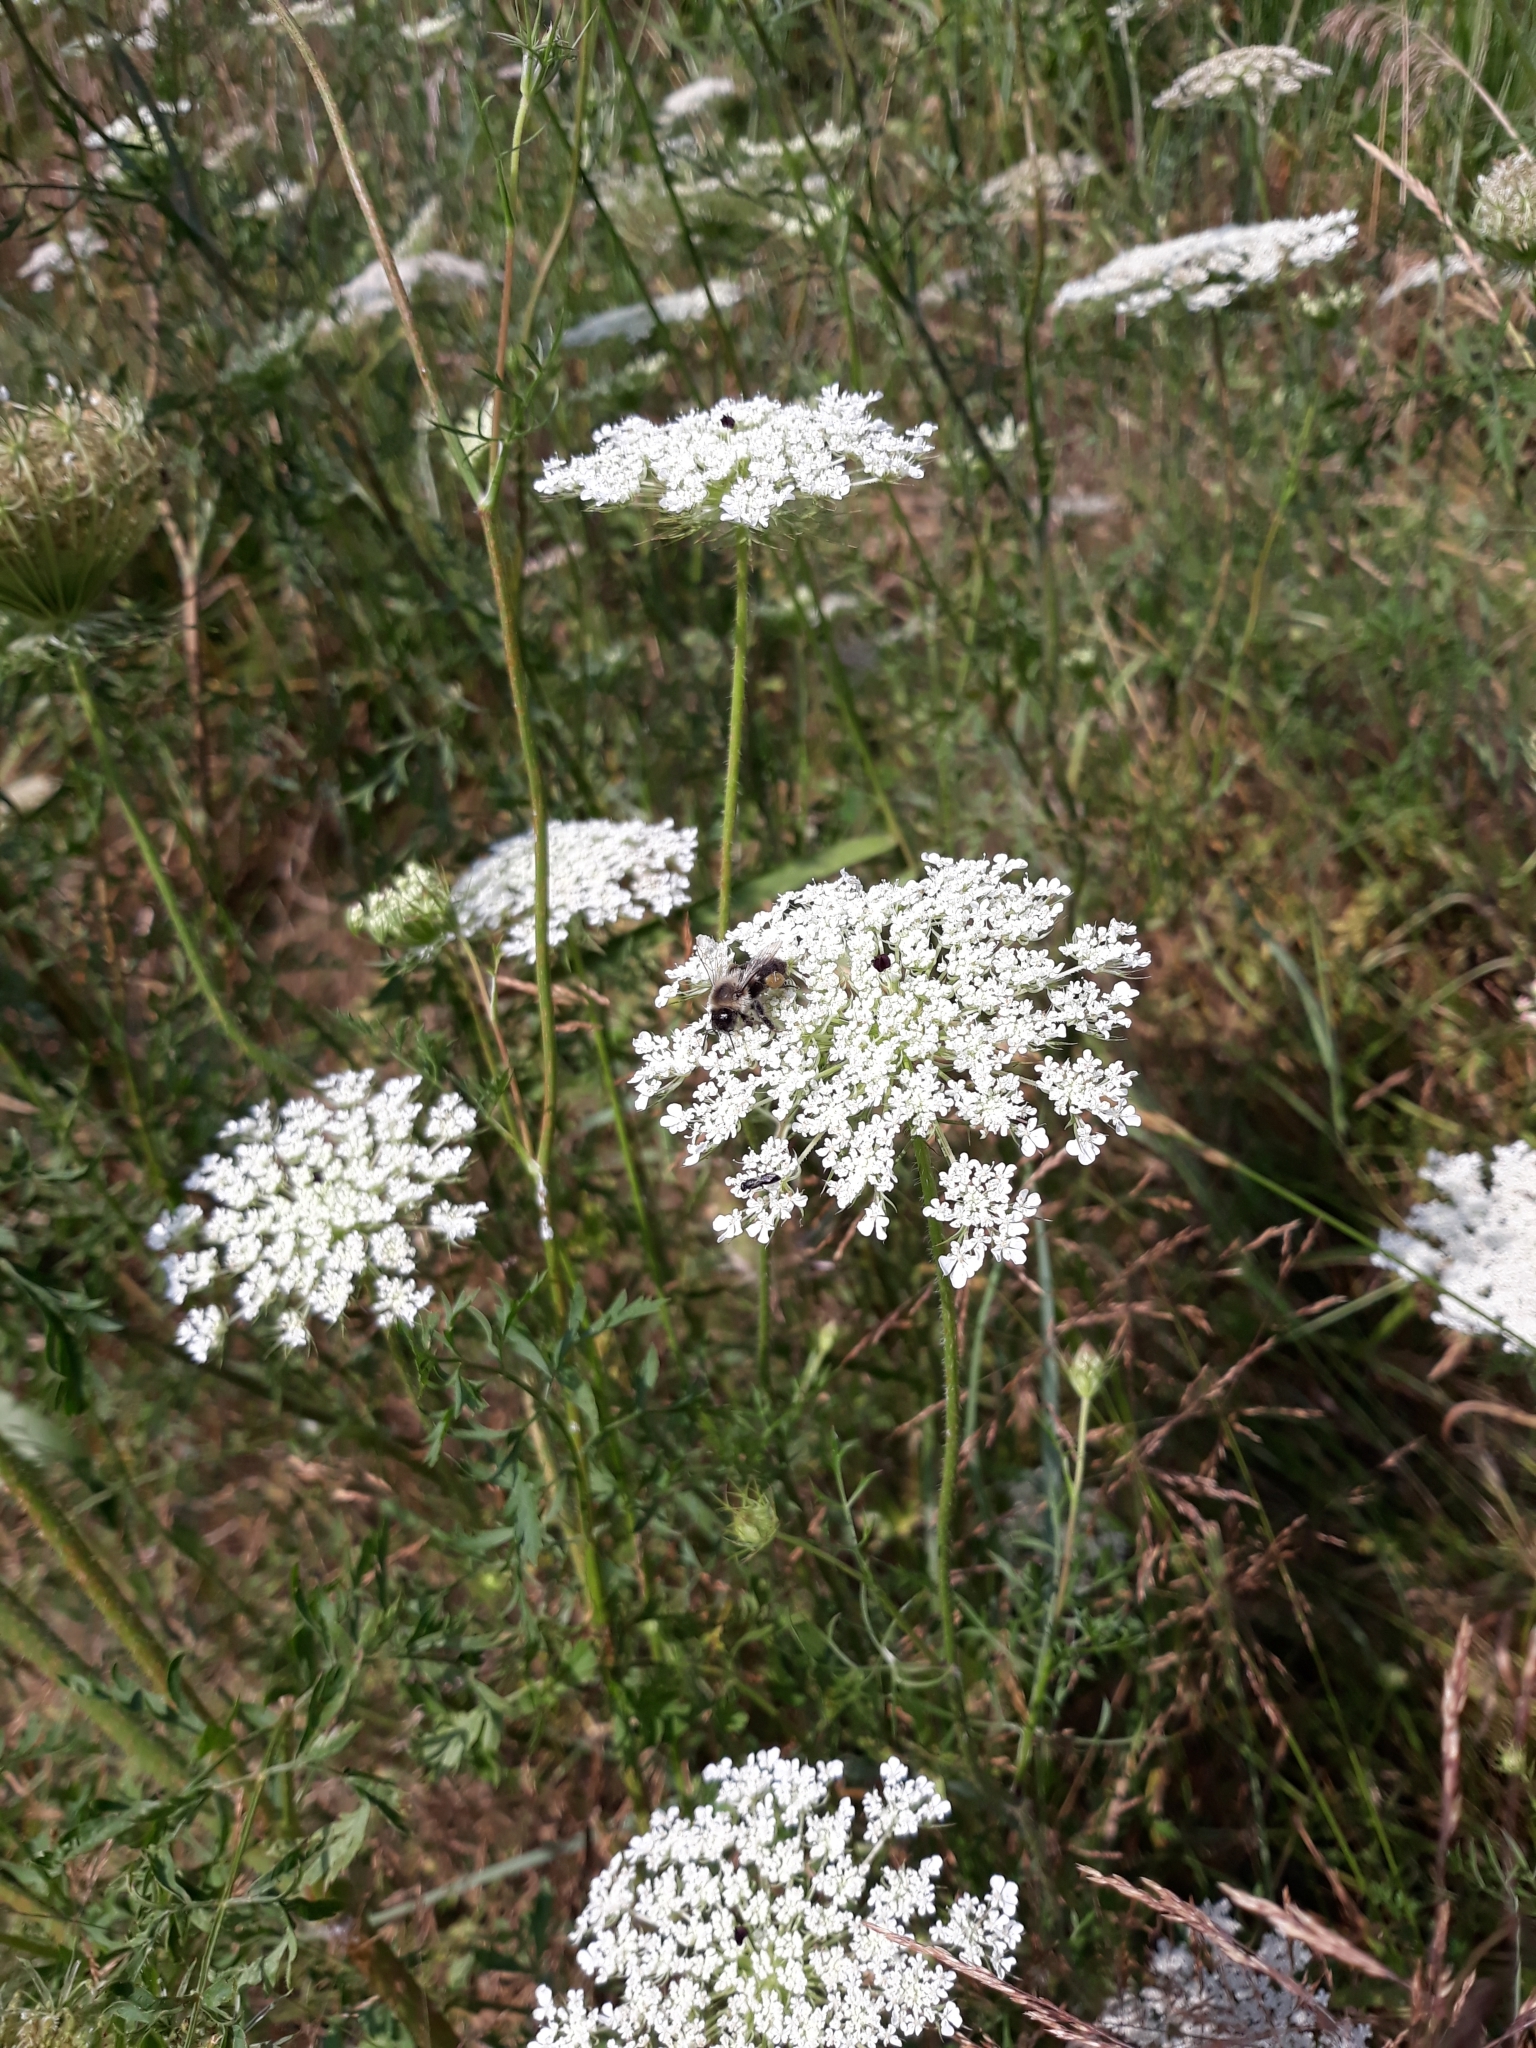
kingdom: Plantae
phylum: Tracheophyta
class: Magnoliopsida
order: Apiales
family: Apiaceae
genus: Daucus
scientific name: Daucus carota
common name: Wild carrot
